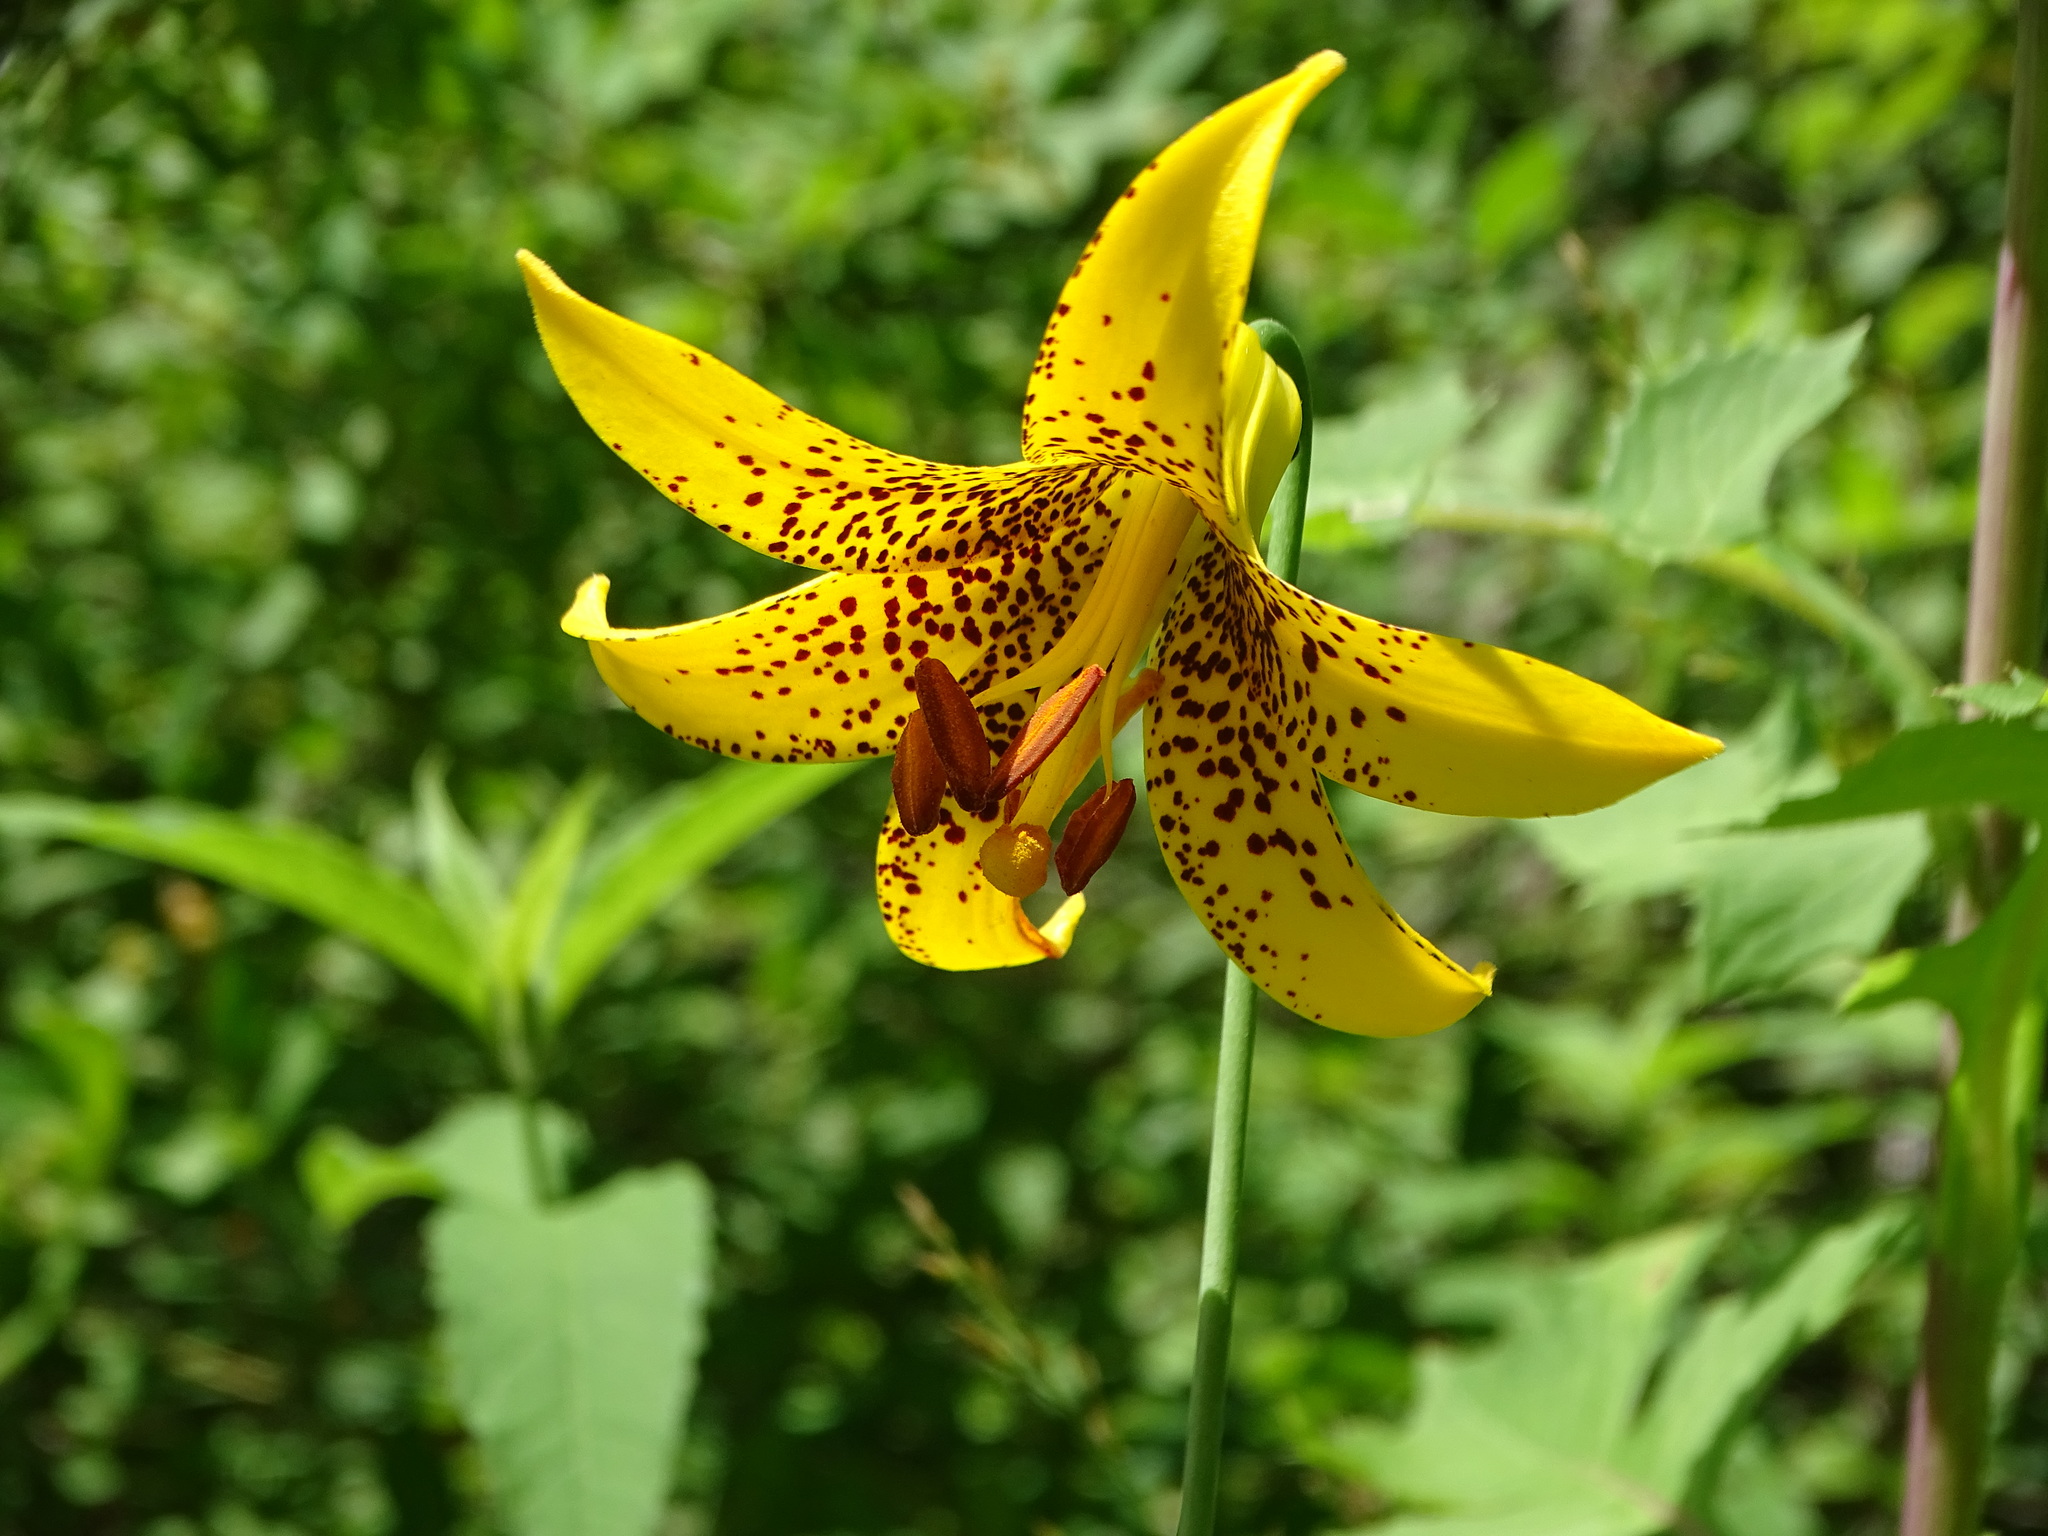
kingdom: Plantae
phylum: Tracheophyta
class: Liliopsida
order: Liliales
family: Liliaceae
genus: Lilium
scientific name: Lilium canadense
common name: Canada lily
